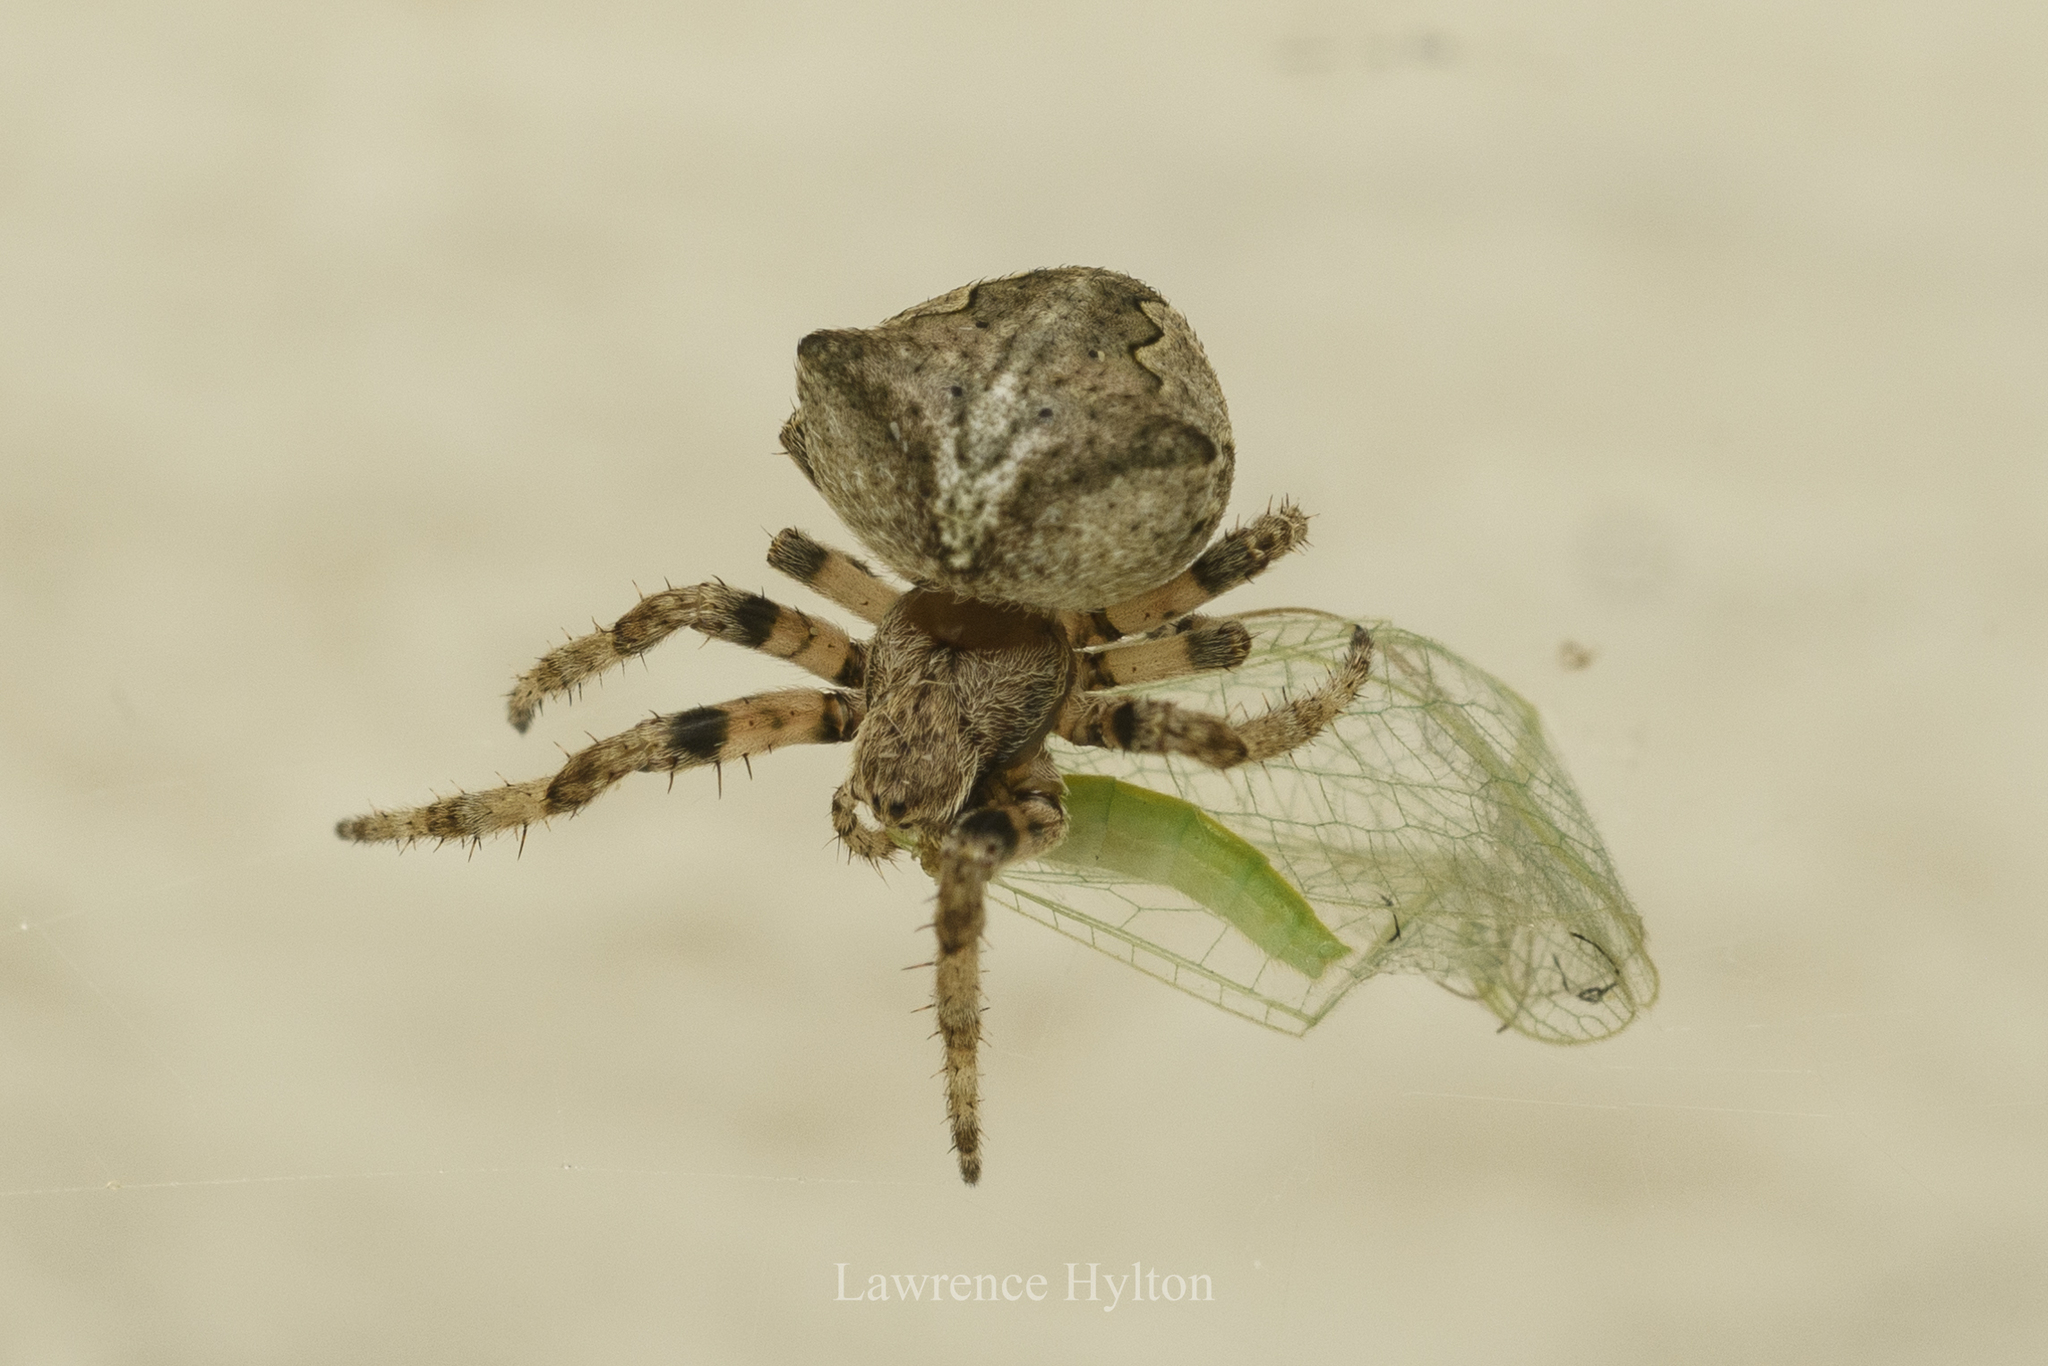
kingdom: Animalia
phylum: Arthropoda
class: Arachnida
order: Araneae
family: Araneidae
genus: Araneus
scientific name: Araneus ventricosus
